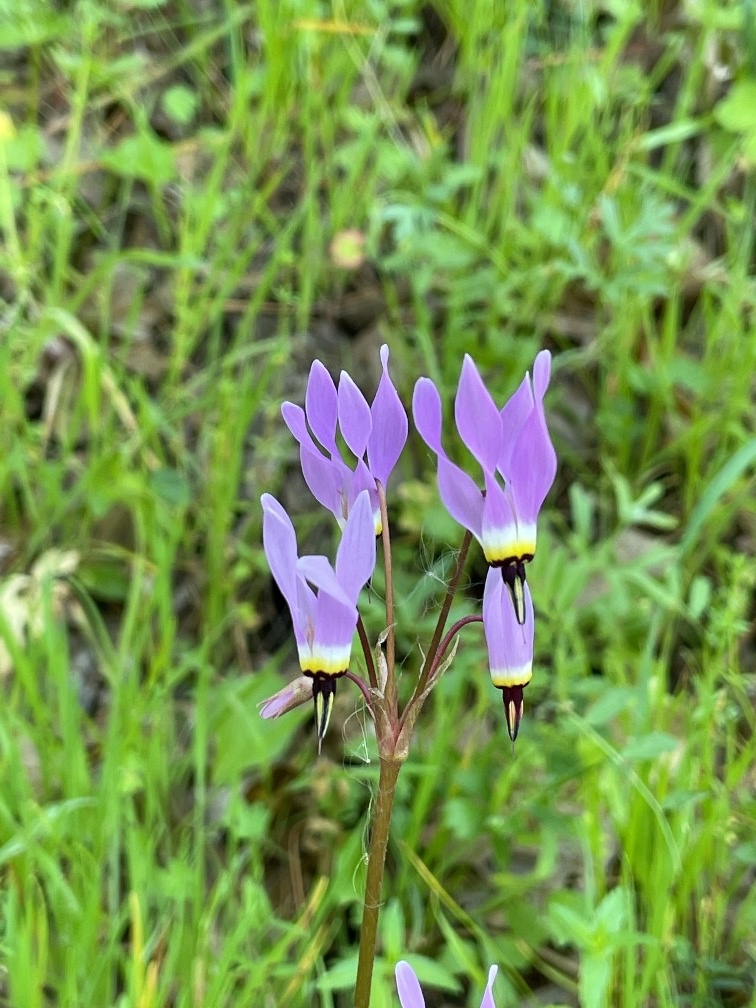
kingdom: Plantae
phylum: Tracheophyta
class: Magnoliopsida
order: Ericales
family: Primulaceae
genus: Dodecatheon
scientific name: Dodecatheon hendersonii
